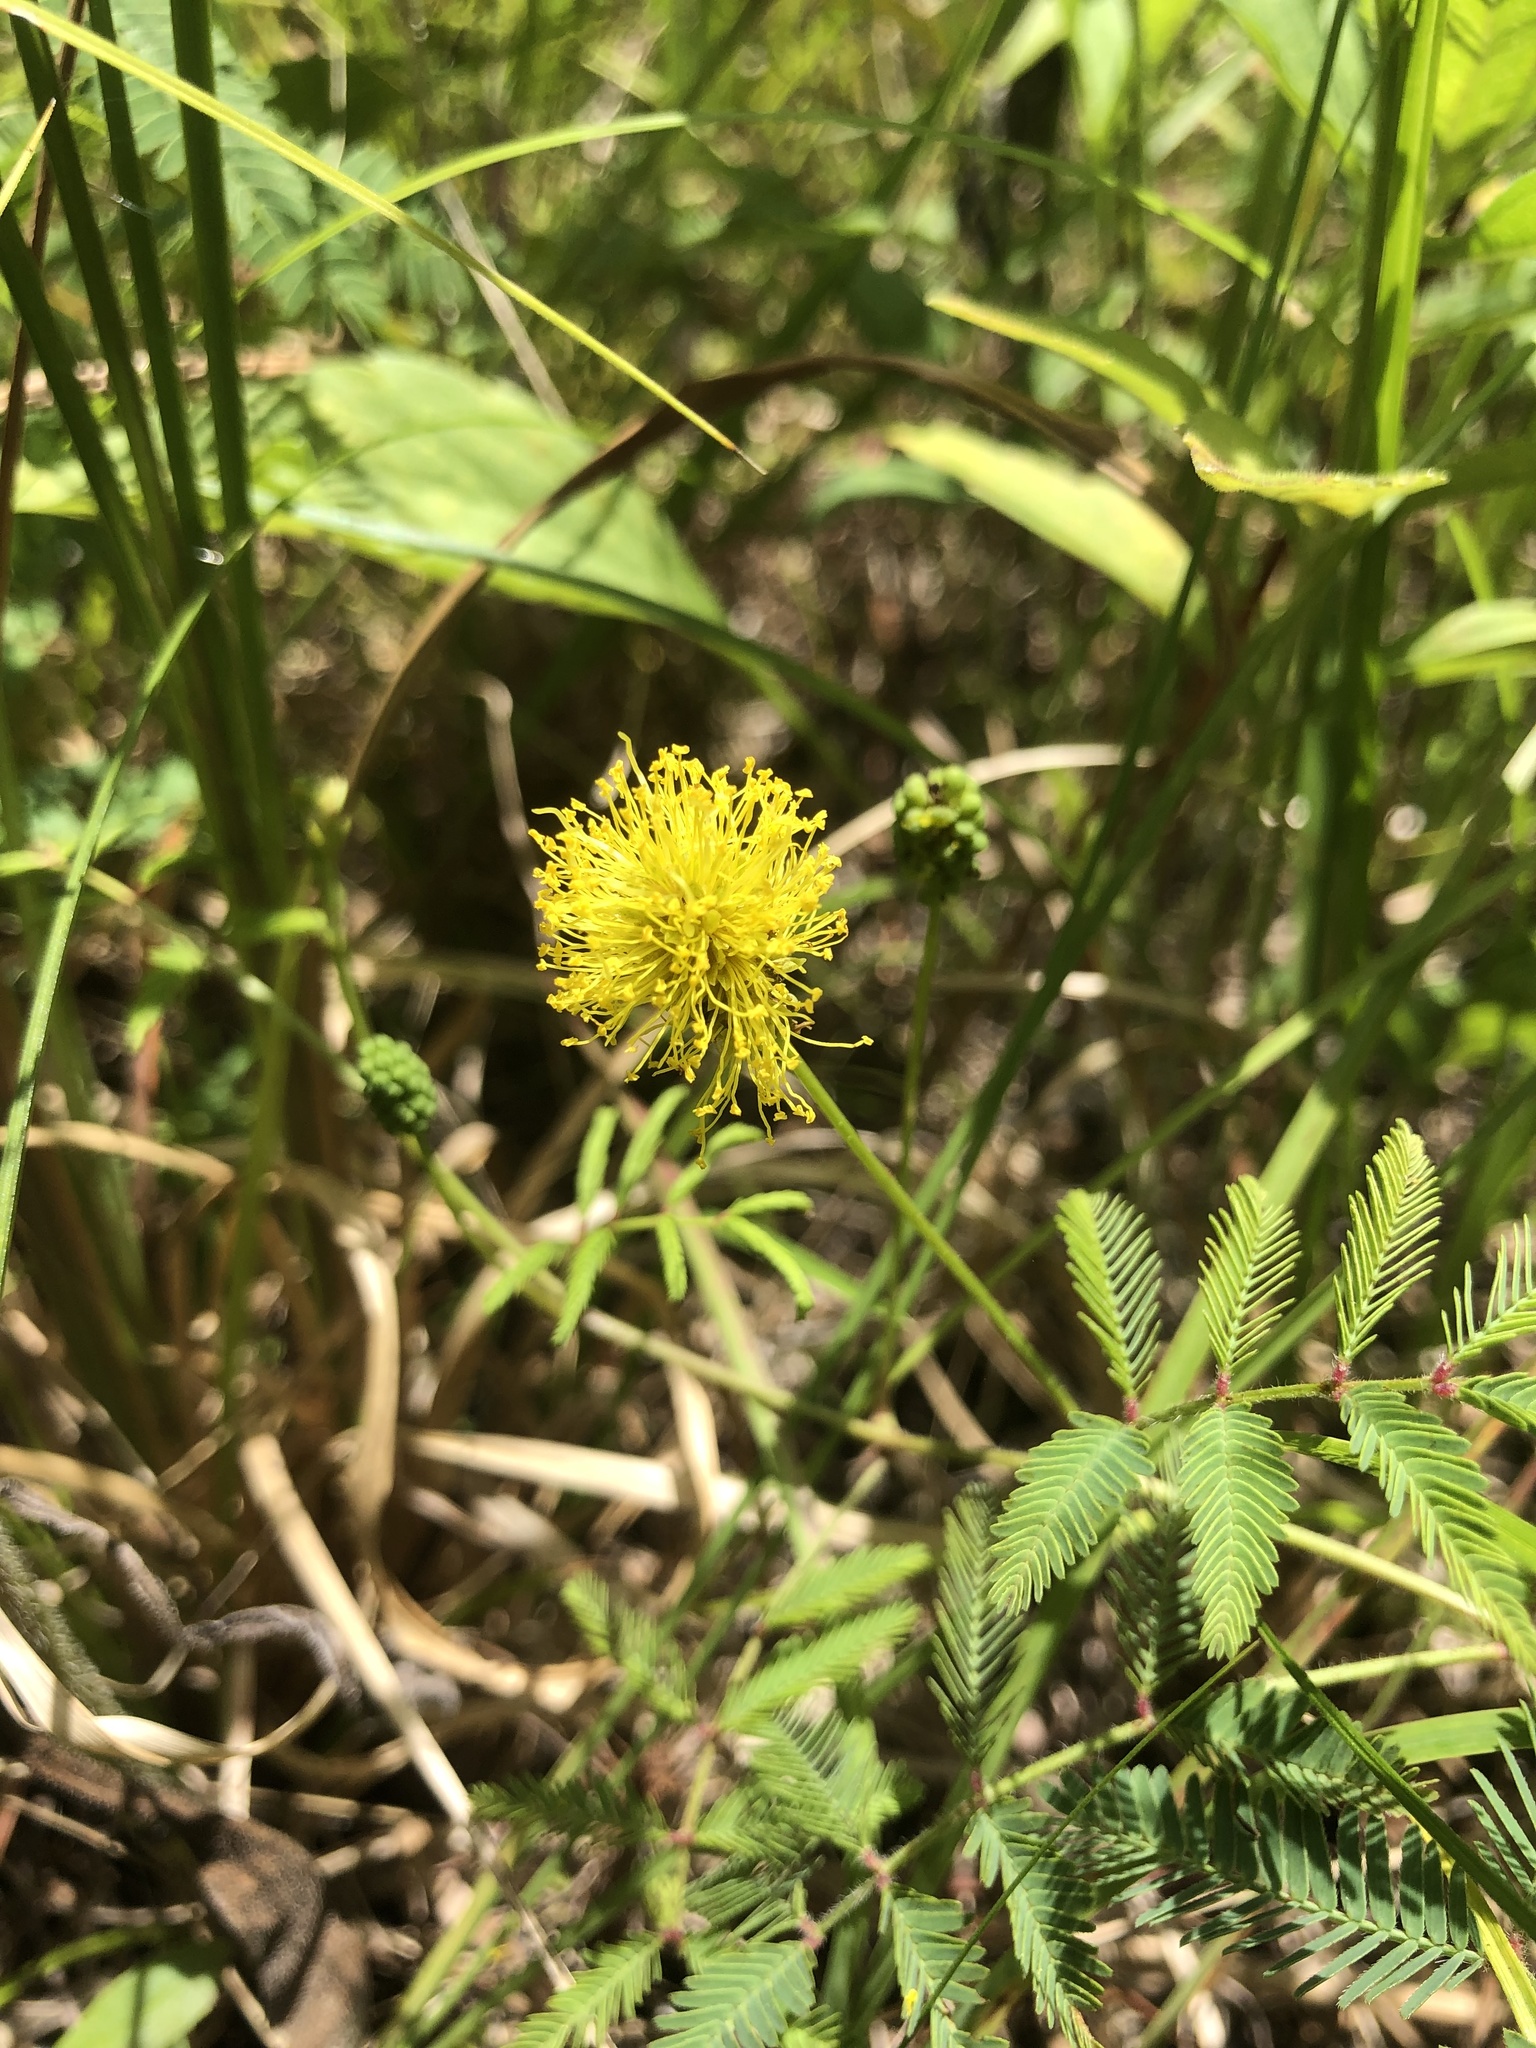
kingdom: Plantae
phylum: Tracheophyta
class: Magnoliopsida
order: Fabales
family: Fabaceae
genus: Neptunia
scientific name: Neptunia lutea
